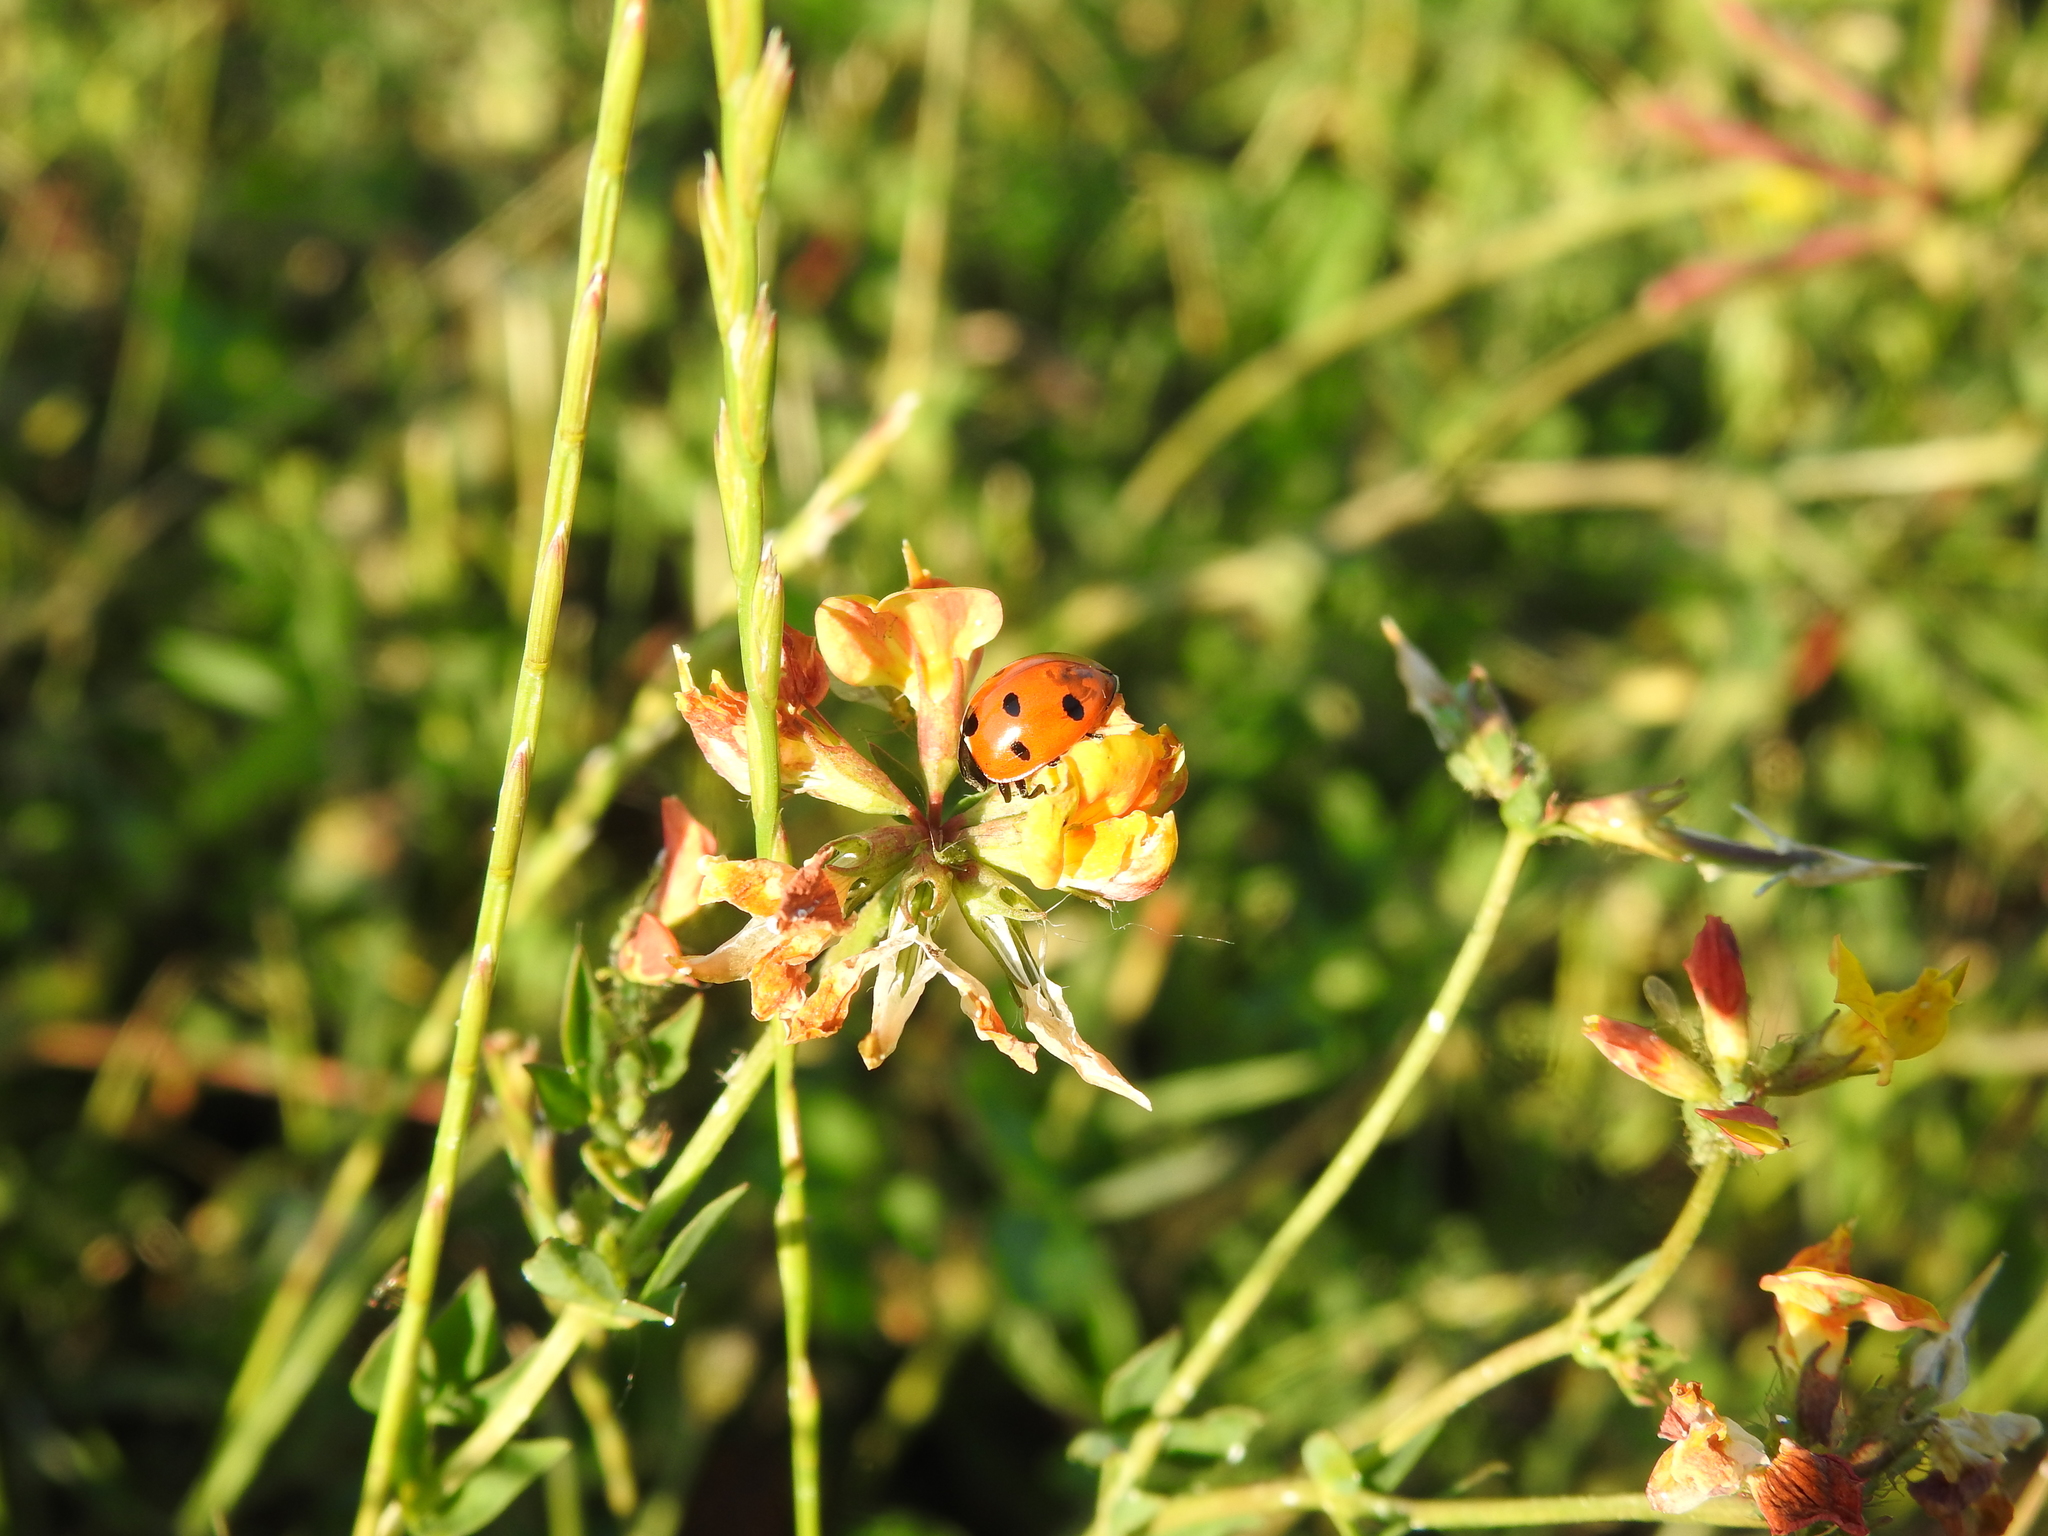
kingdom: Animalia
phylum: Arthropoda
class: Insecta
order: Coleoptera
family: Coccinellidae
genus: Coccinella
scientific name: Coccinella septempunctata
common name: Sevenspotted lady beetle
